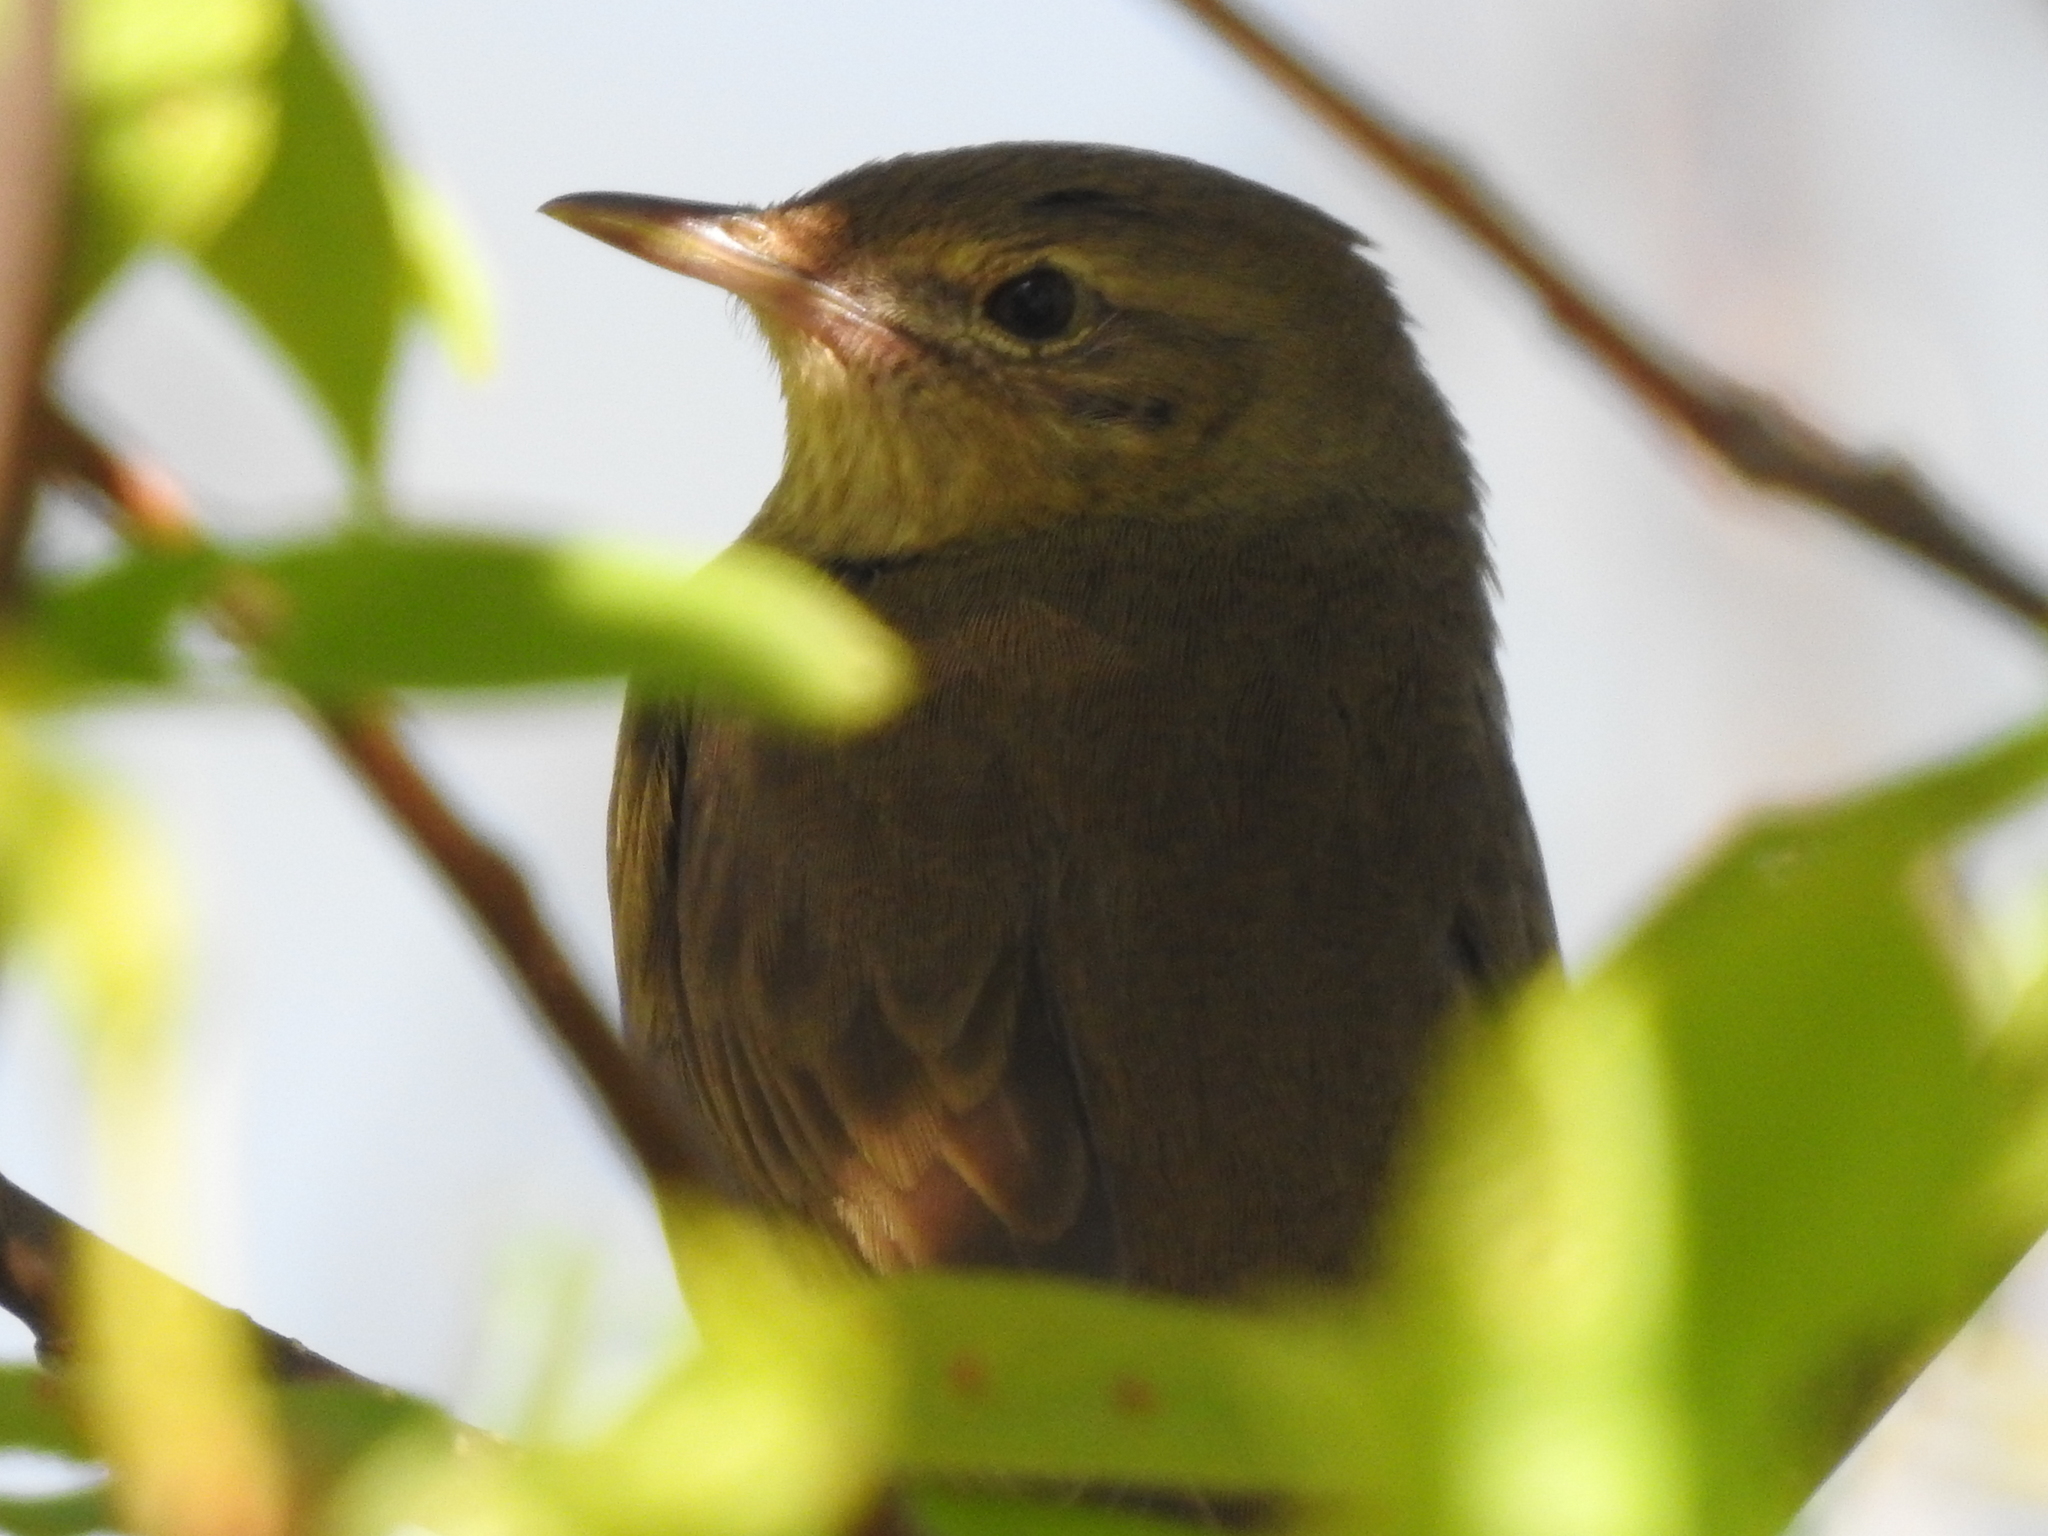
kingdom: Animalia
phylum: Chordata
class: Aves
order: Passeriformes
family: Locustellidae
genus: Locustella
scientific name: Locustella fluviatilis
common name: River warbler
